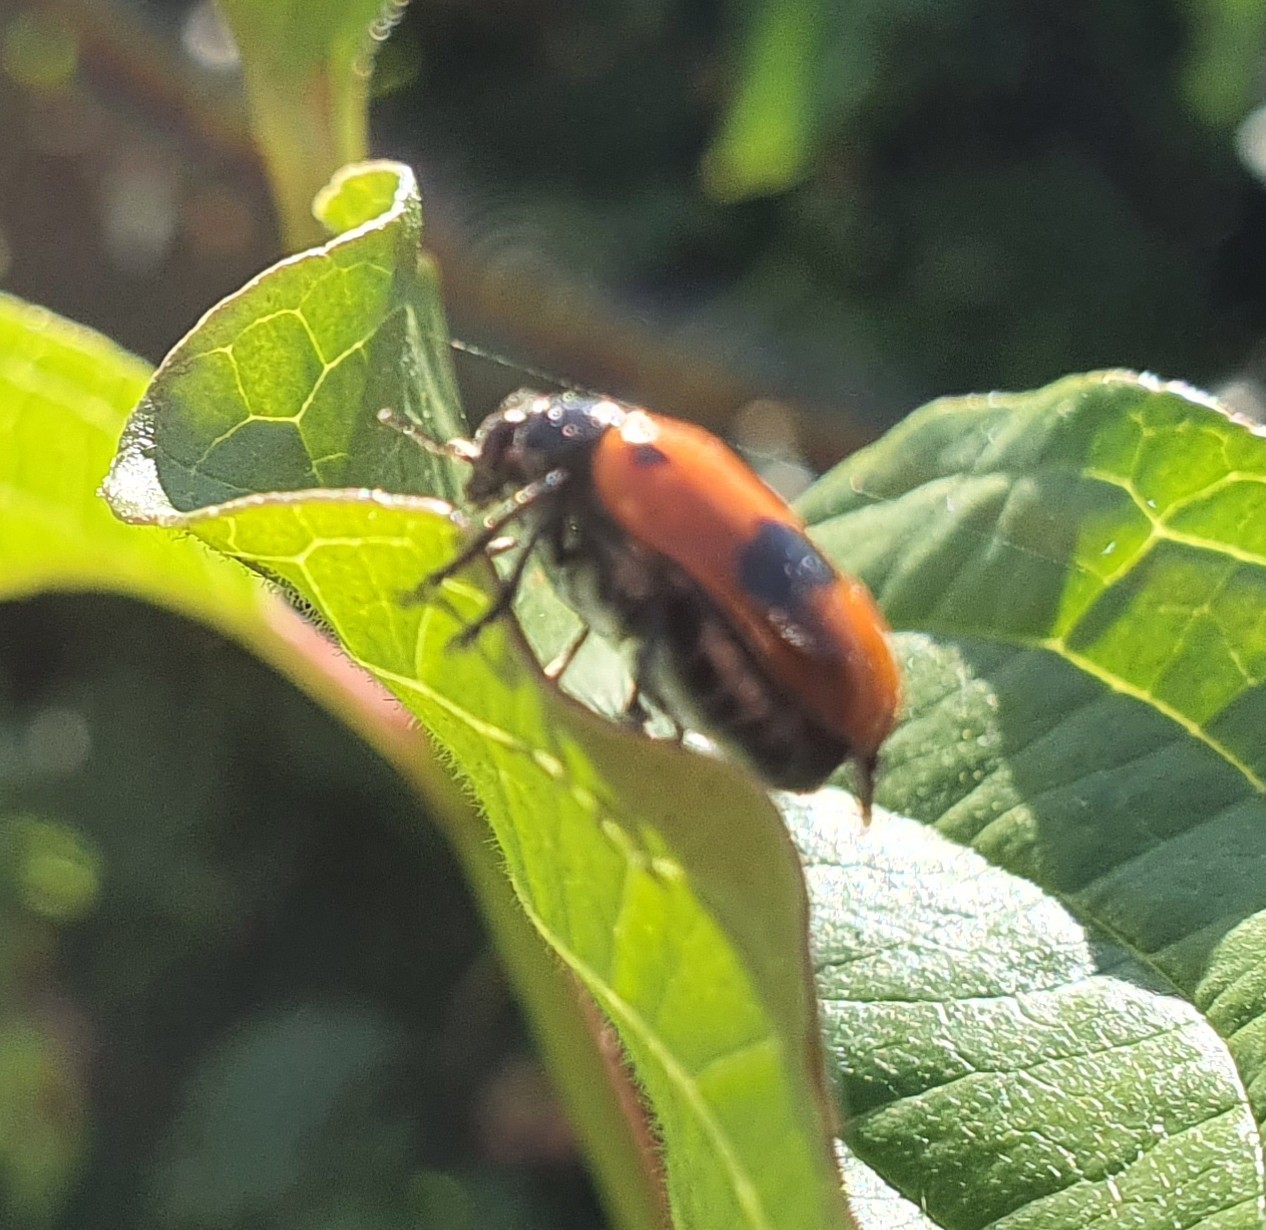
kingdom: Animalia
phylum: Arthropoda
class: Insecta
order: Coleoptera
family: Chrysomelidae
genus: Clytra
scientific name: Clytra laeviuscula
